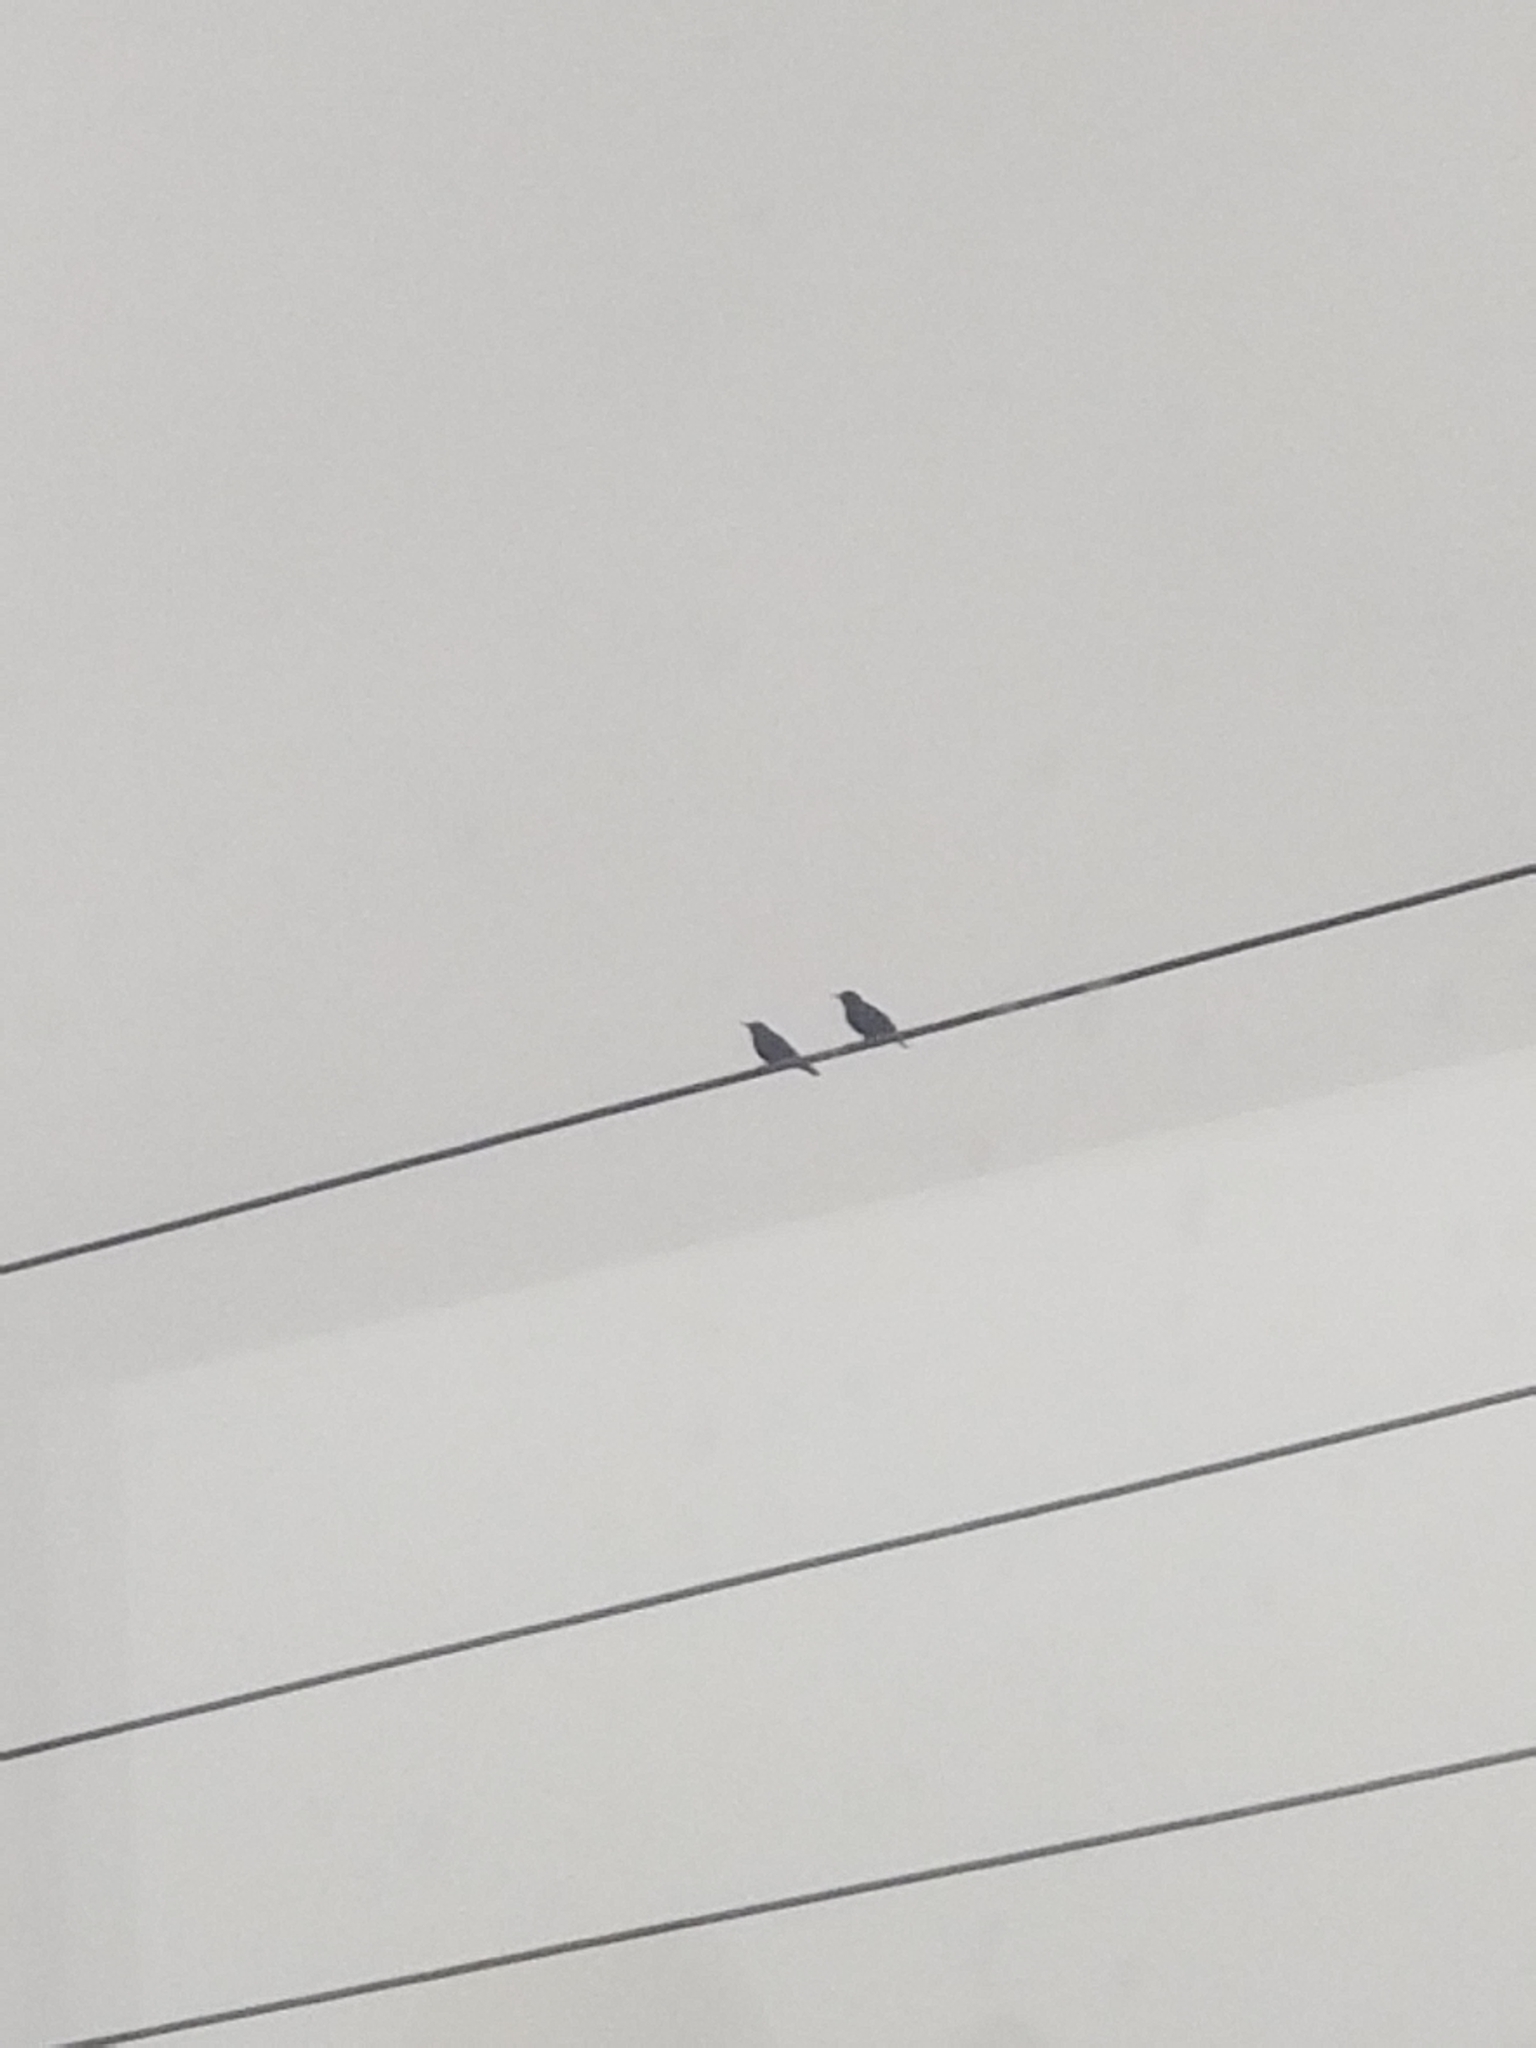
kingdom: Animalia
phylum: Chordata
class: Aves
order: Passeriformes
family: Sturnidae
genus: Sturnus
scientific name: Sturnus vulgaris
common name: Common starling
